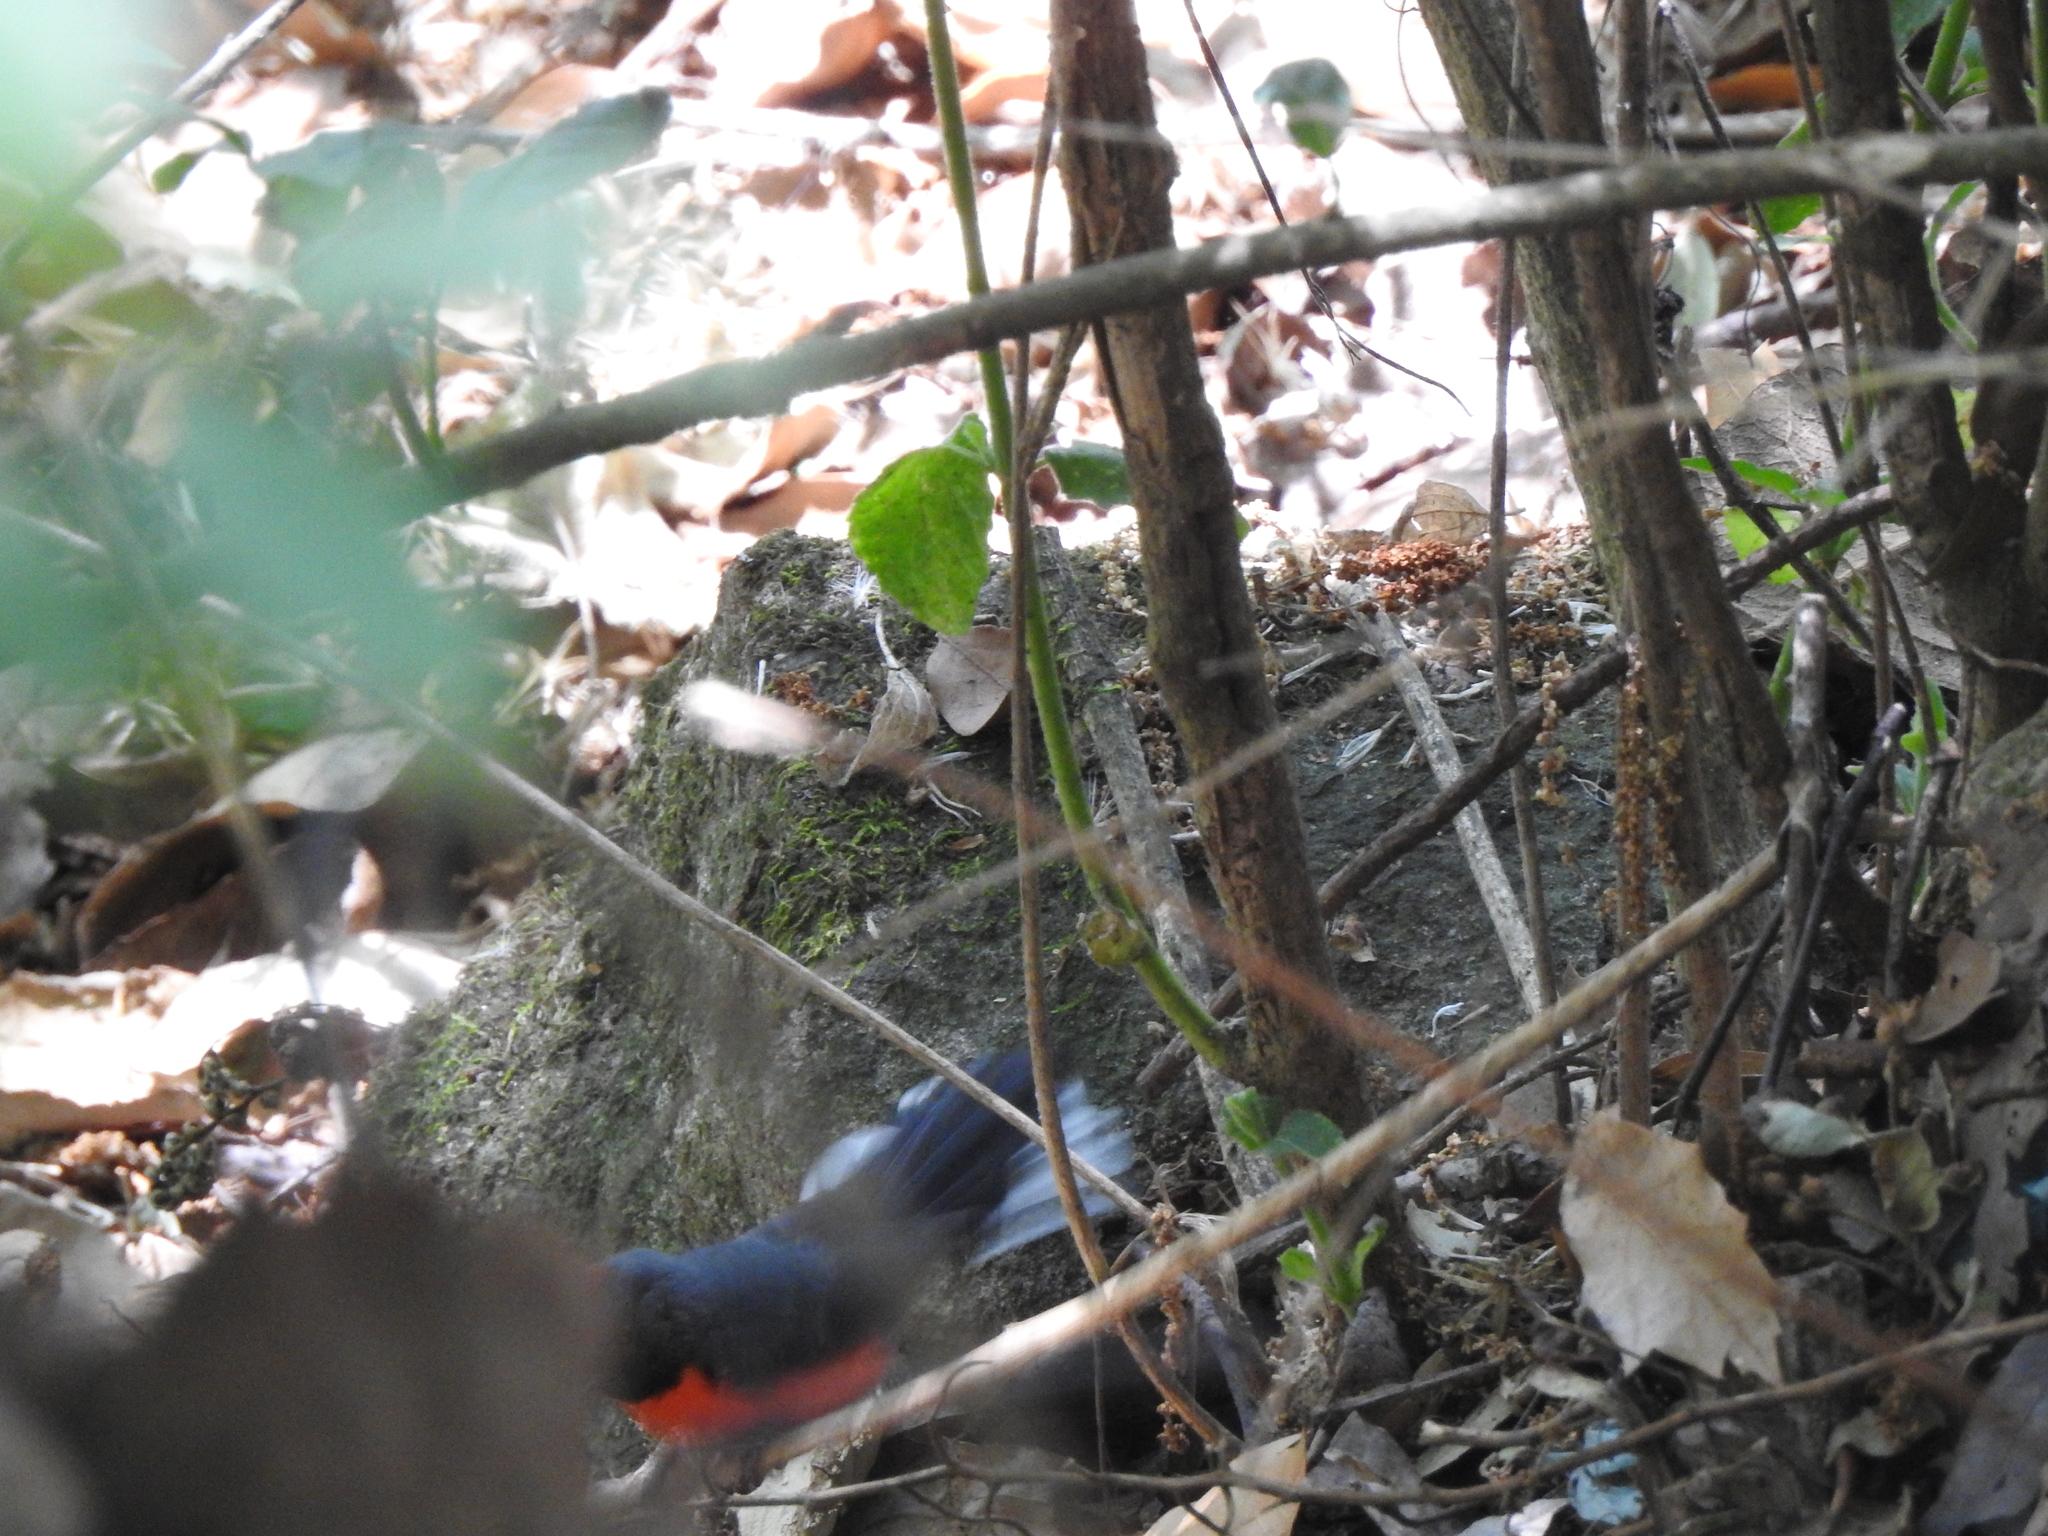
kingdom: Animalia
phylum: Chordata
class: Aves
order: Passeriformes
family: Parulidae
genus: Myioborus
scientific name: Myioborus miniatus
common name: Slate-throated redstart
